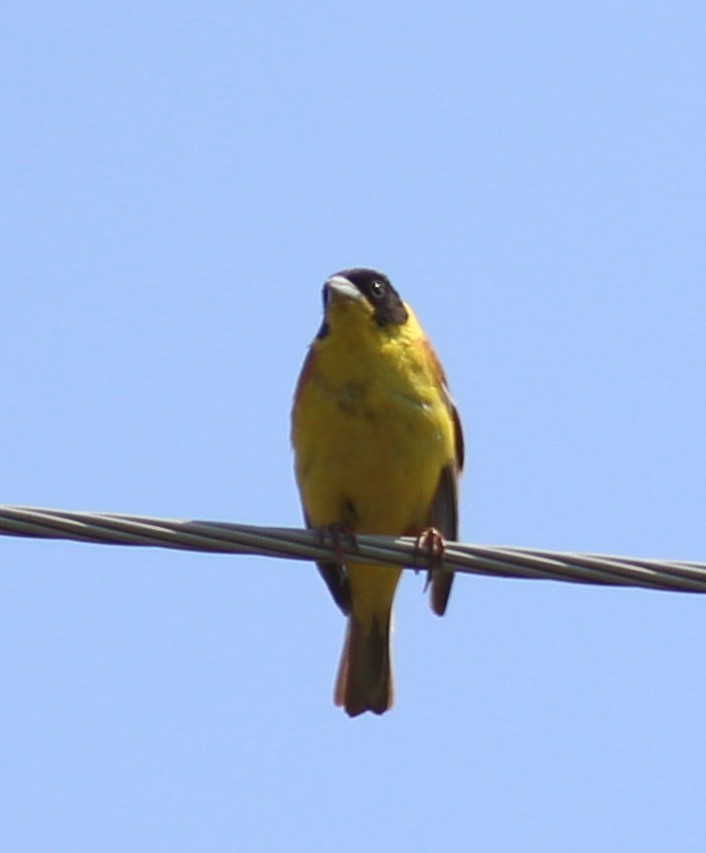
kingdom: Animalia
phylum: Chordata
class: Aves
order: Passeriformes
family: Emberizidae
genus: Emberiza
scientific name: Emberiza melanocephala
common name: Black-headed bunting
